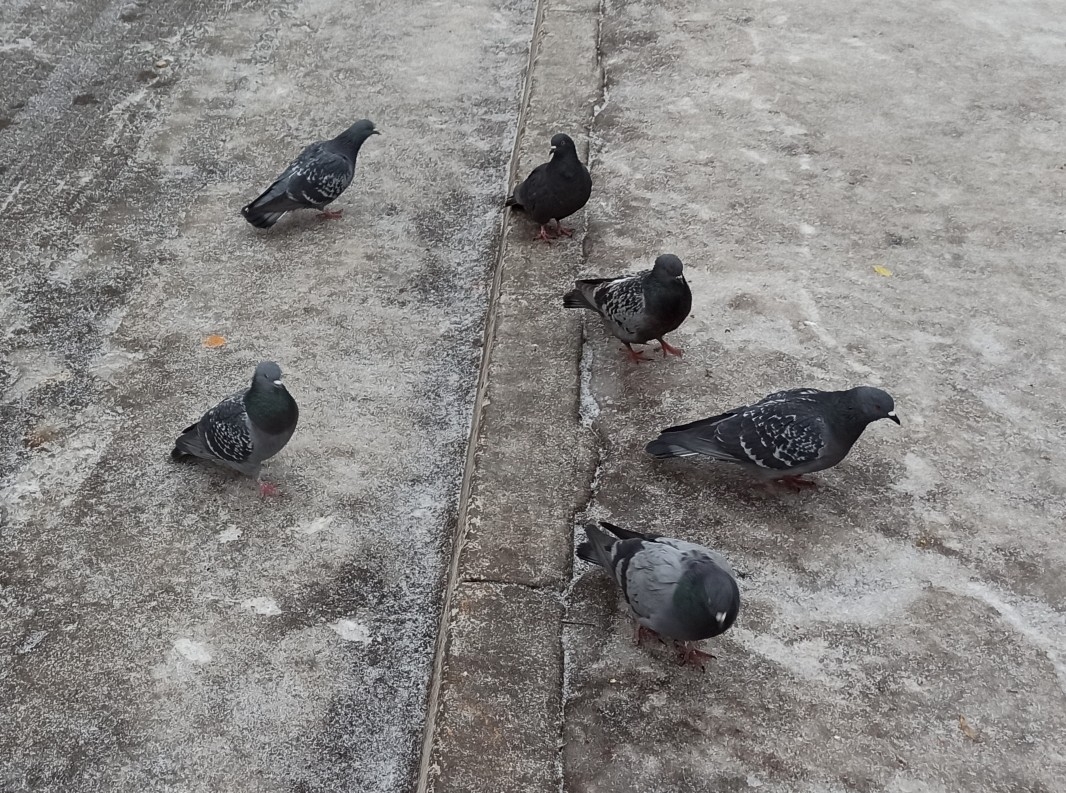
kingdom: Animalia
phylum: Chordata
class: Aves
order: Columbiformes
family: Columbidae
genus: Columba
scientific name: Columba livia
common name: Rock pigeon
